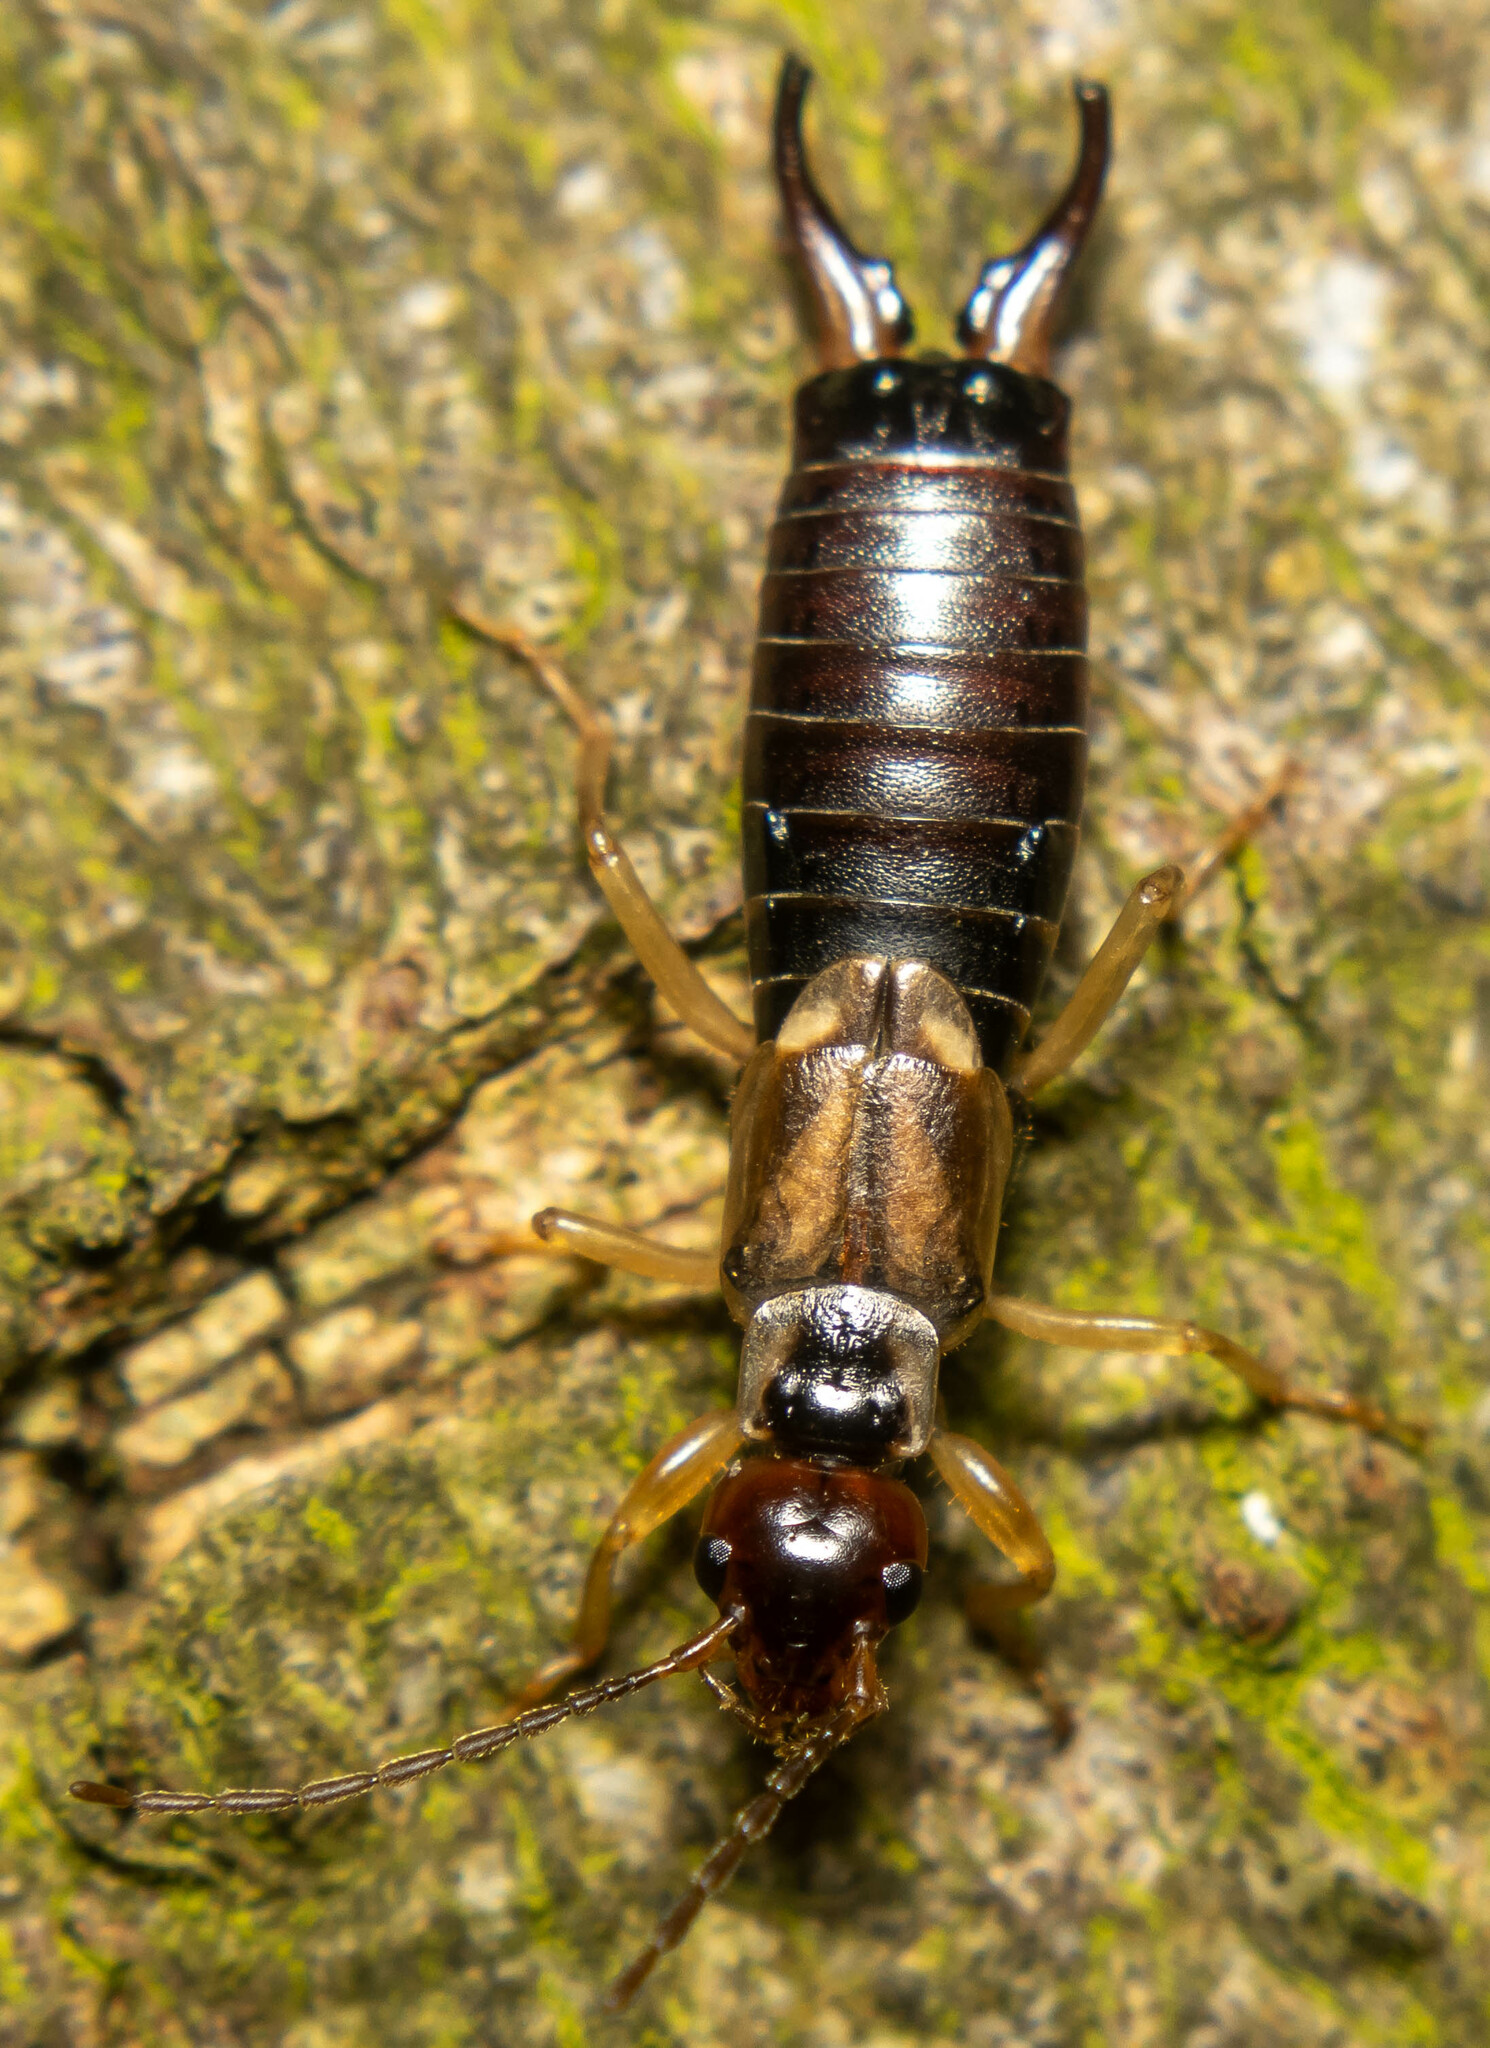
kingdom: Animalia
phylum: Arthropoda
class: Insecta
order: Dermaptera
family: Forficulidae
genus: Forficula
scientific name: Forficula dentata
